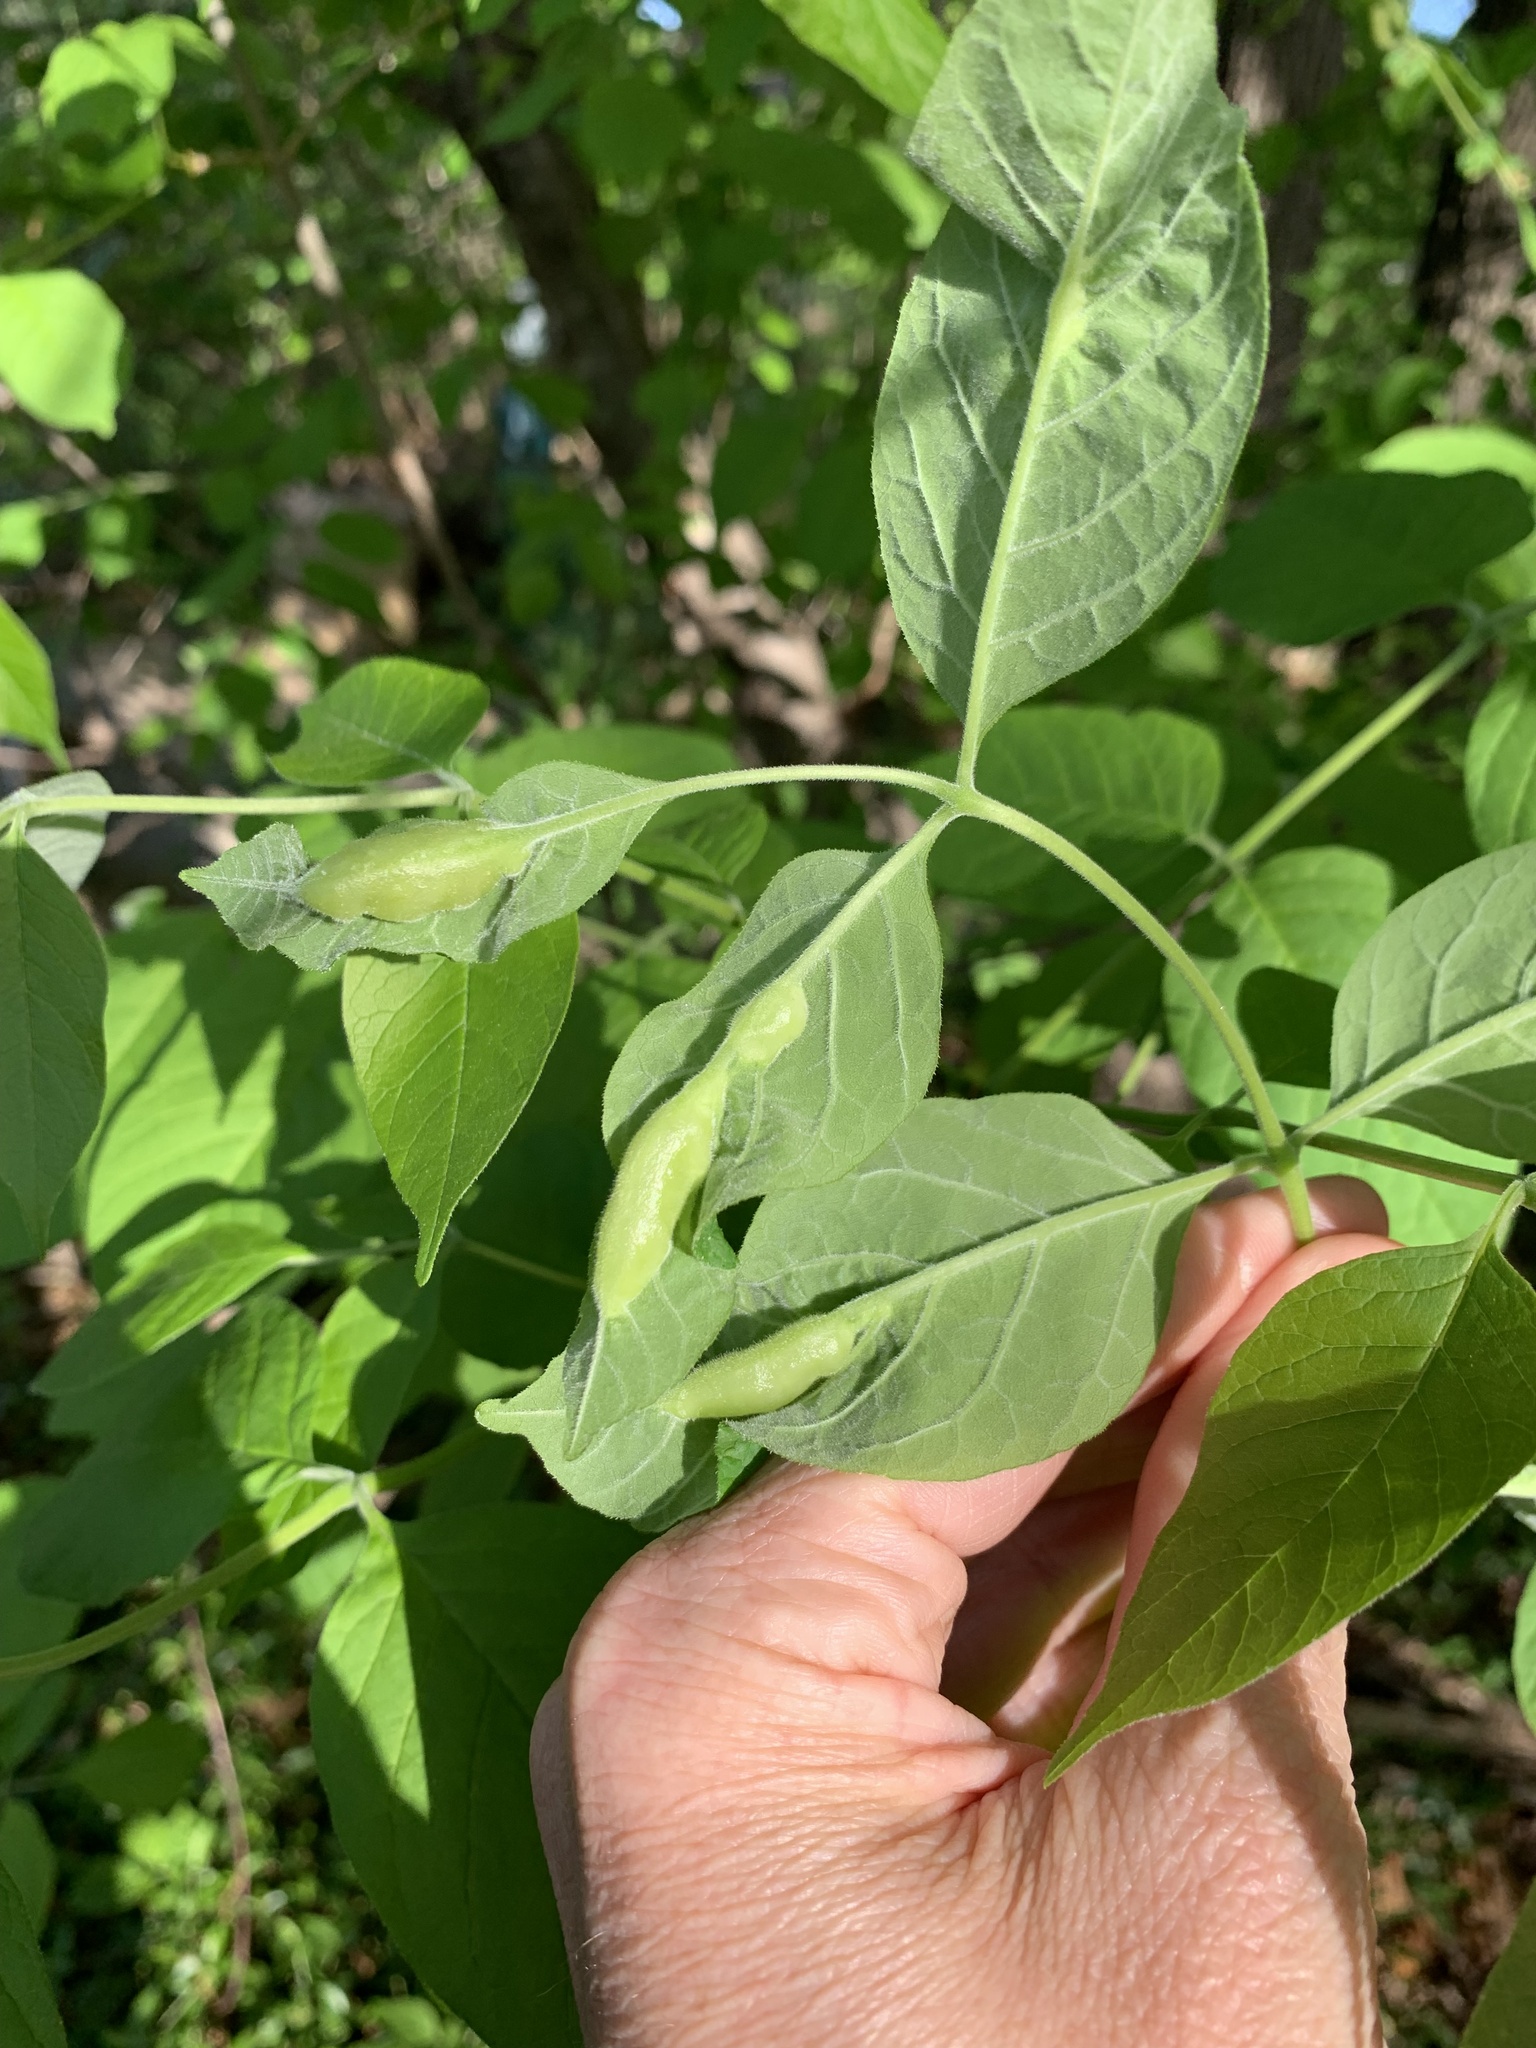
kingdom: Animalia
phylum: Arthropoda
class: Insecta
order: Diptera
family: Cecidomyiidae
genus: Dasineura
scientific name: Dasineura tumidosae
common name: Ash petiole gall midge
